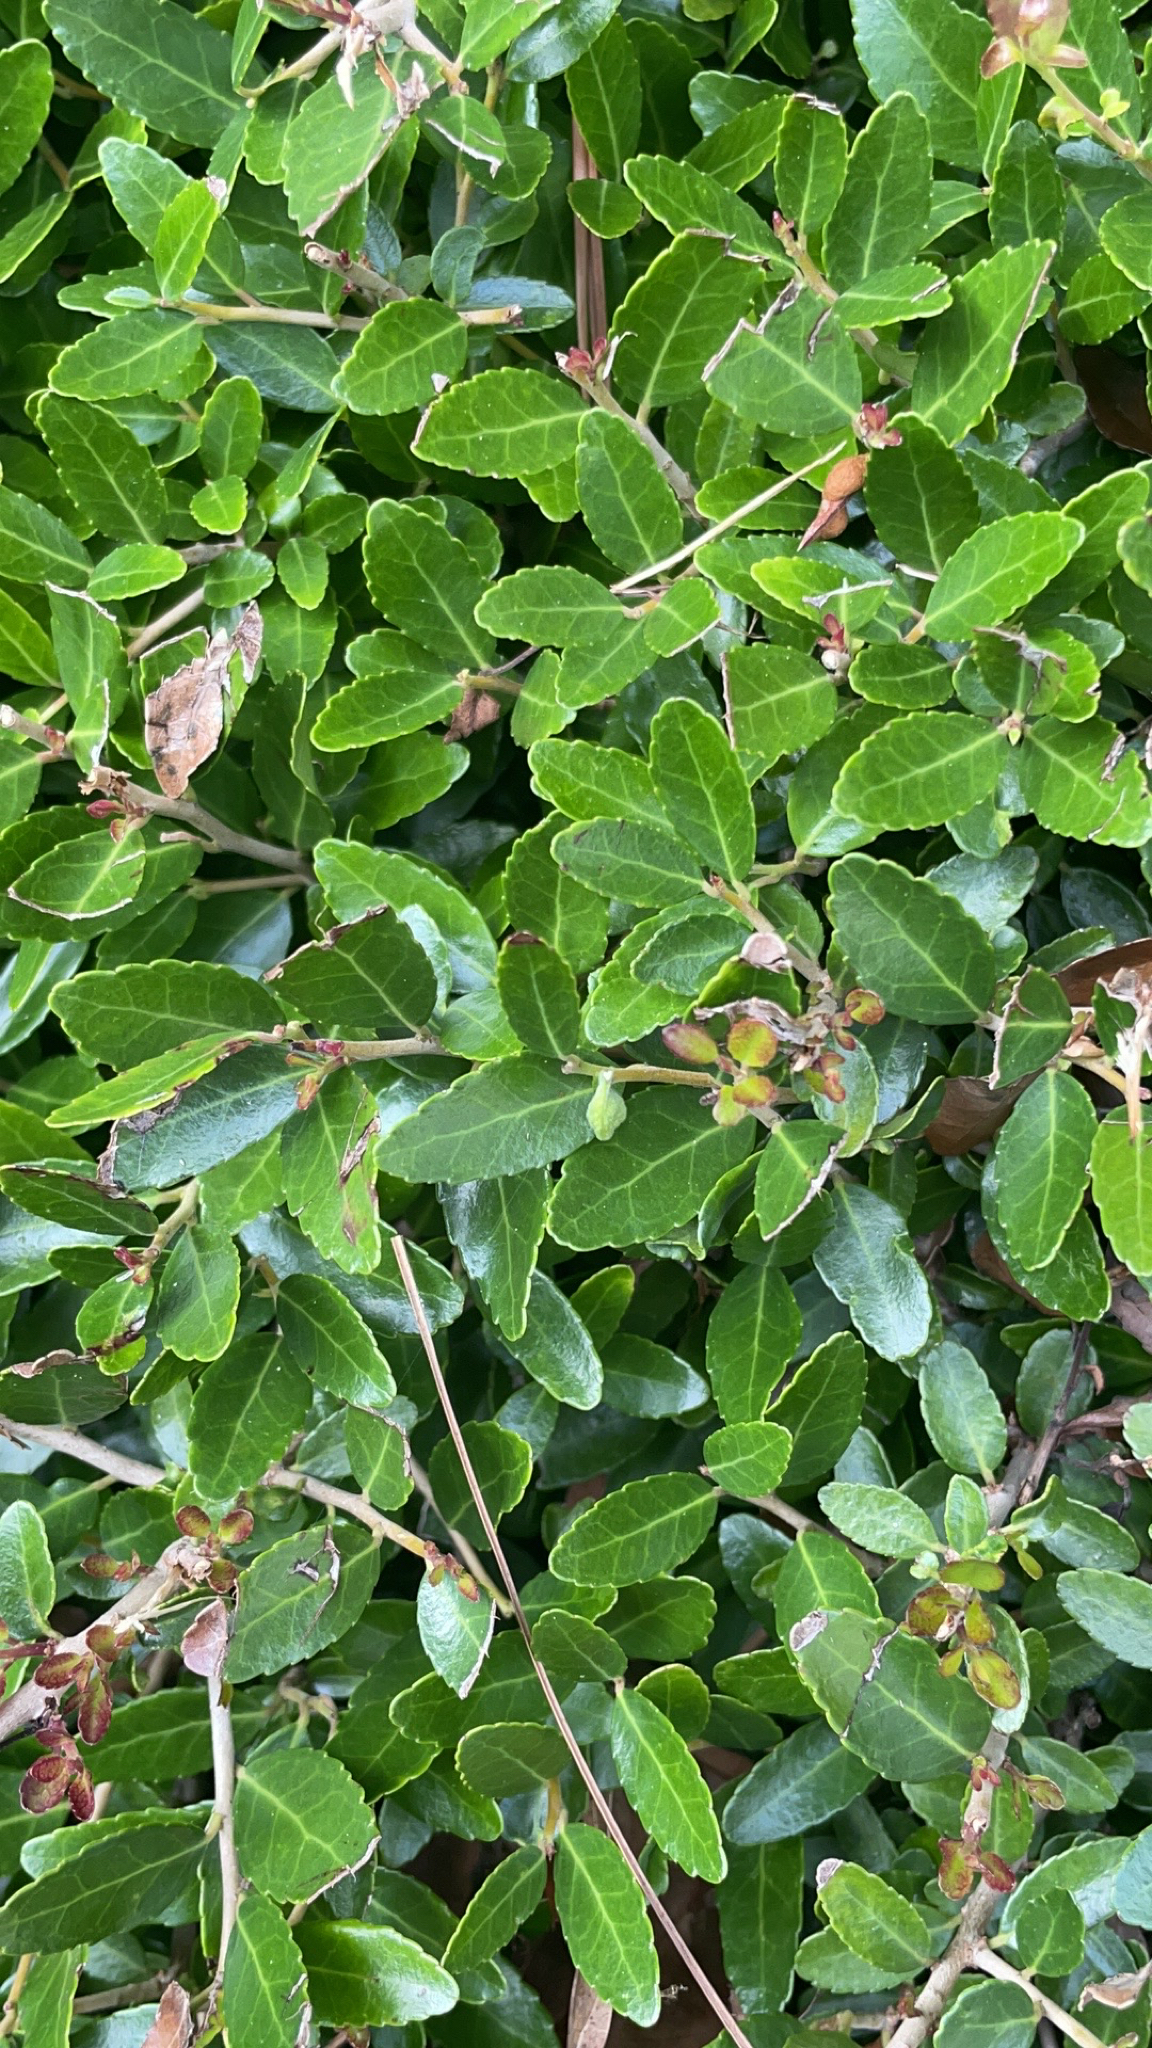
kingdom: Plantae
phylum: Tracheophyta
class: Magnoliopsida
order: Aquifoliales
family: Aquifoliaceae
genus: Ilex
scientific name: Ilex vomitoria
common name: Yaupon holly
